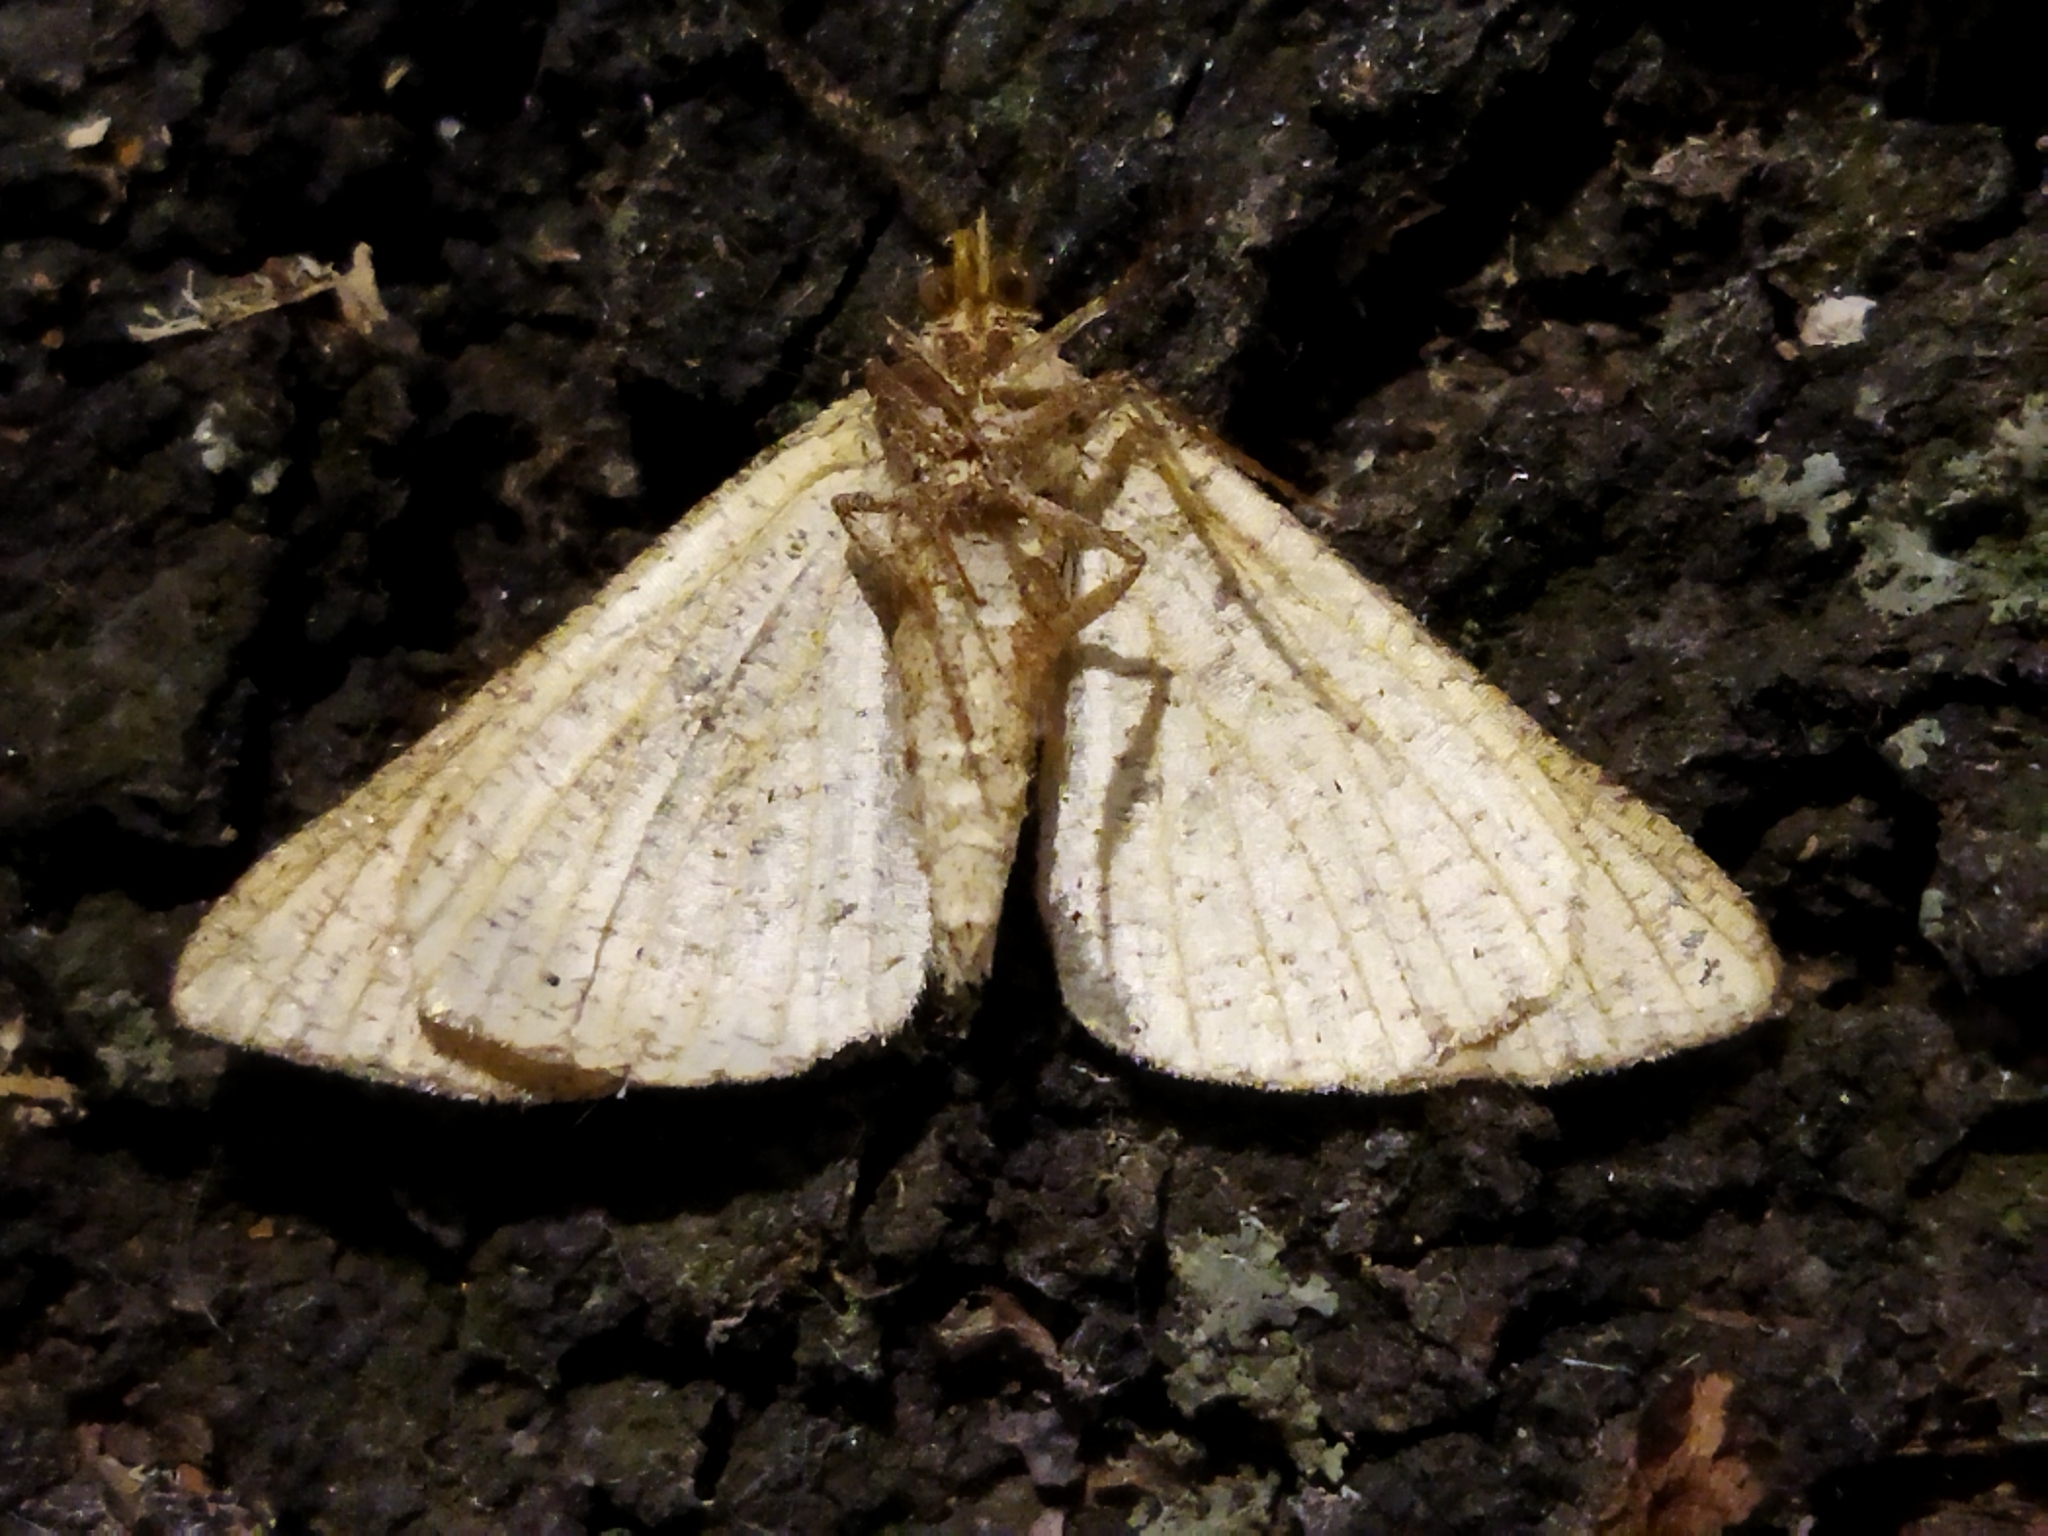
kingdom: Animalia
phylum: Arthropoda
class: Insecta
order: Lepidoptera
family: Geometridae
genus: Tephrina
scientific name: Tephrina arenacearia
